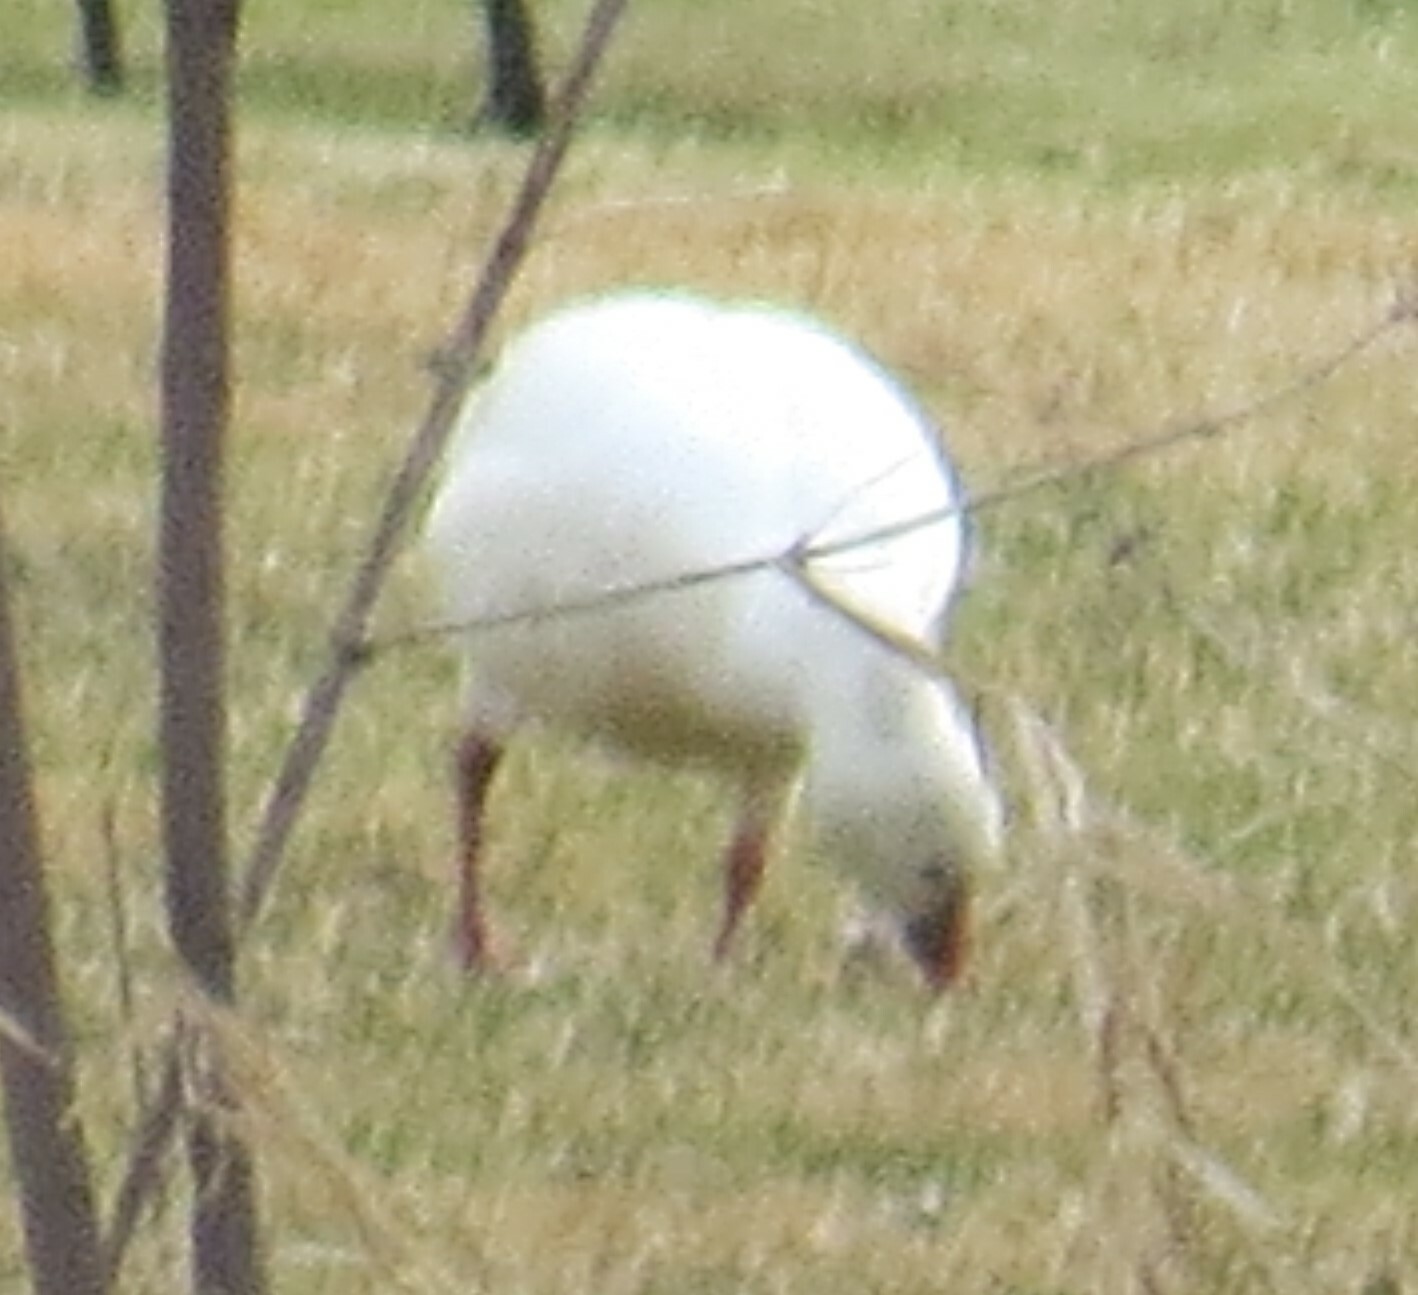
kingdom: Animalia
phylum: Chordata
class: Aves
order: Anseriformes
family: Anatidae
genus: Anser
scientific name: Anser rossii
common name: Ross's goose
